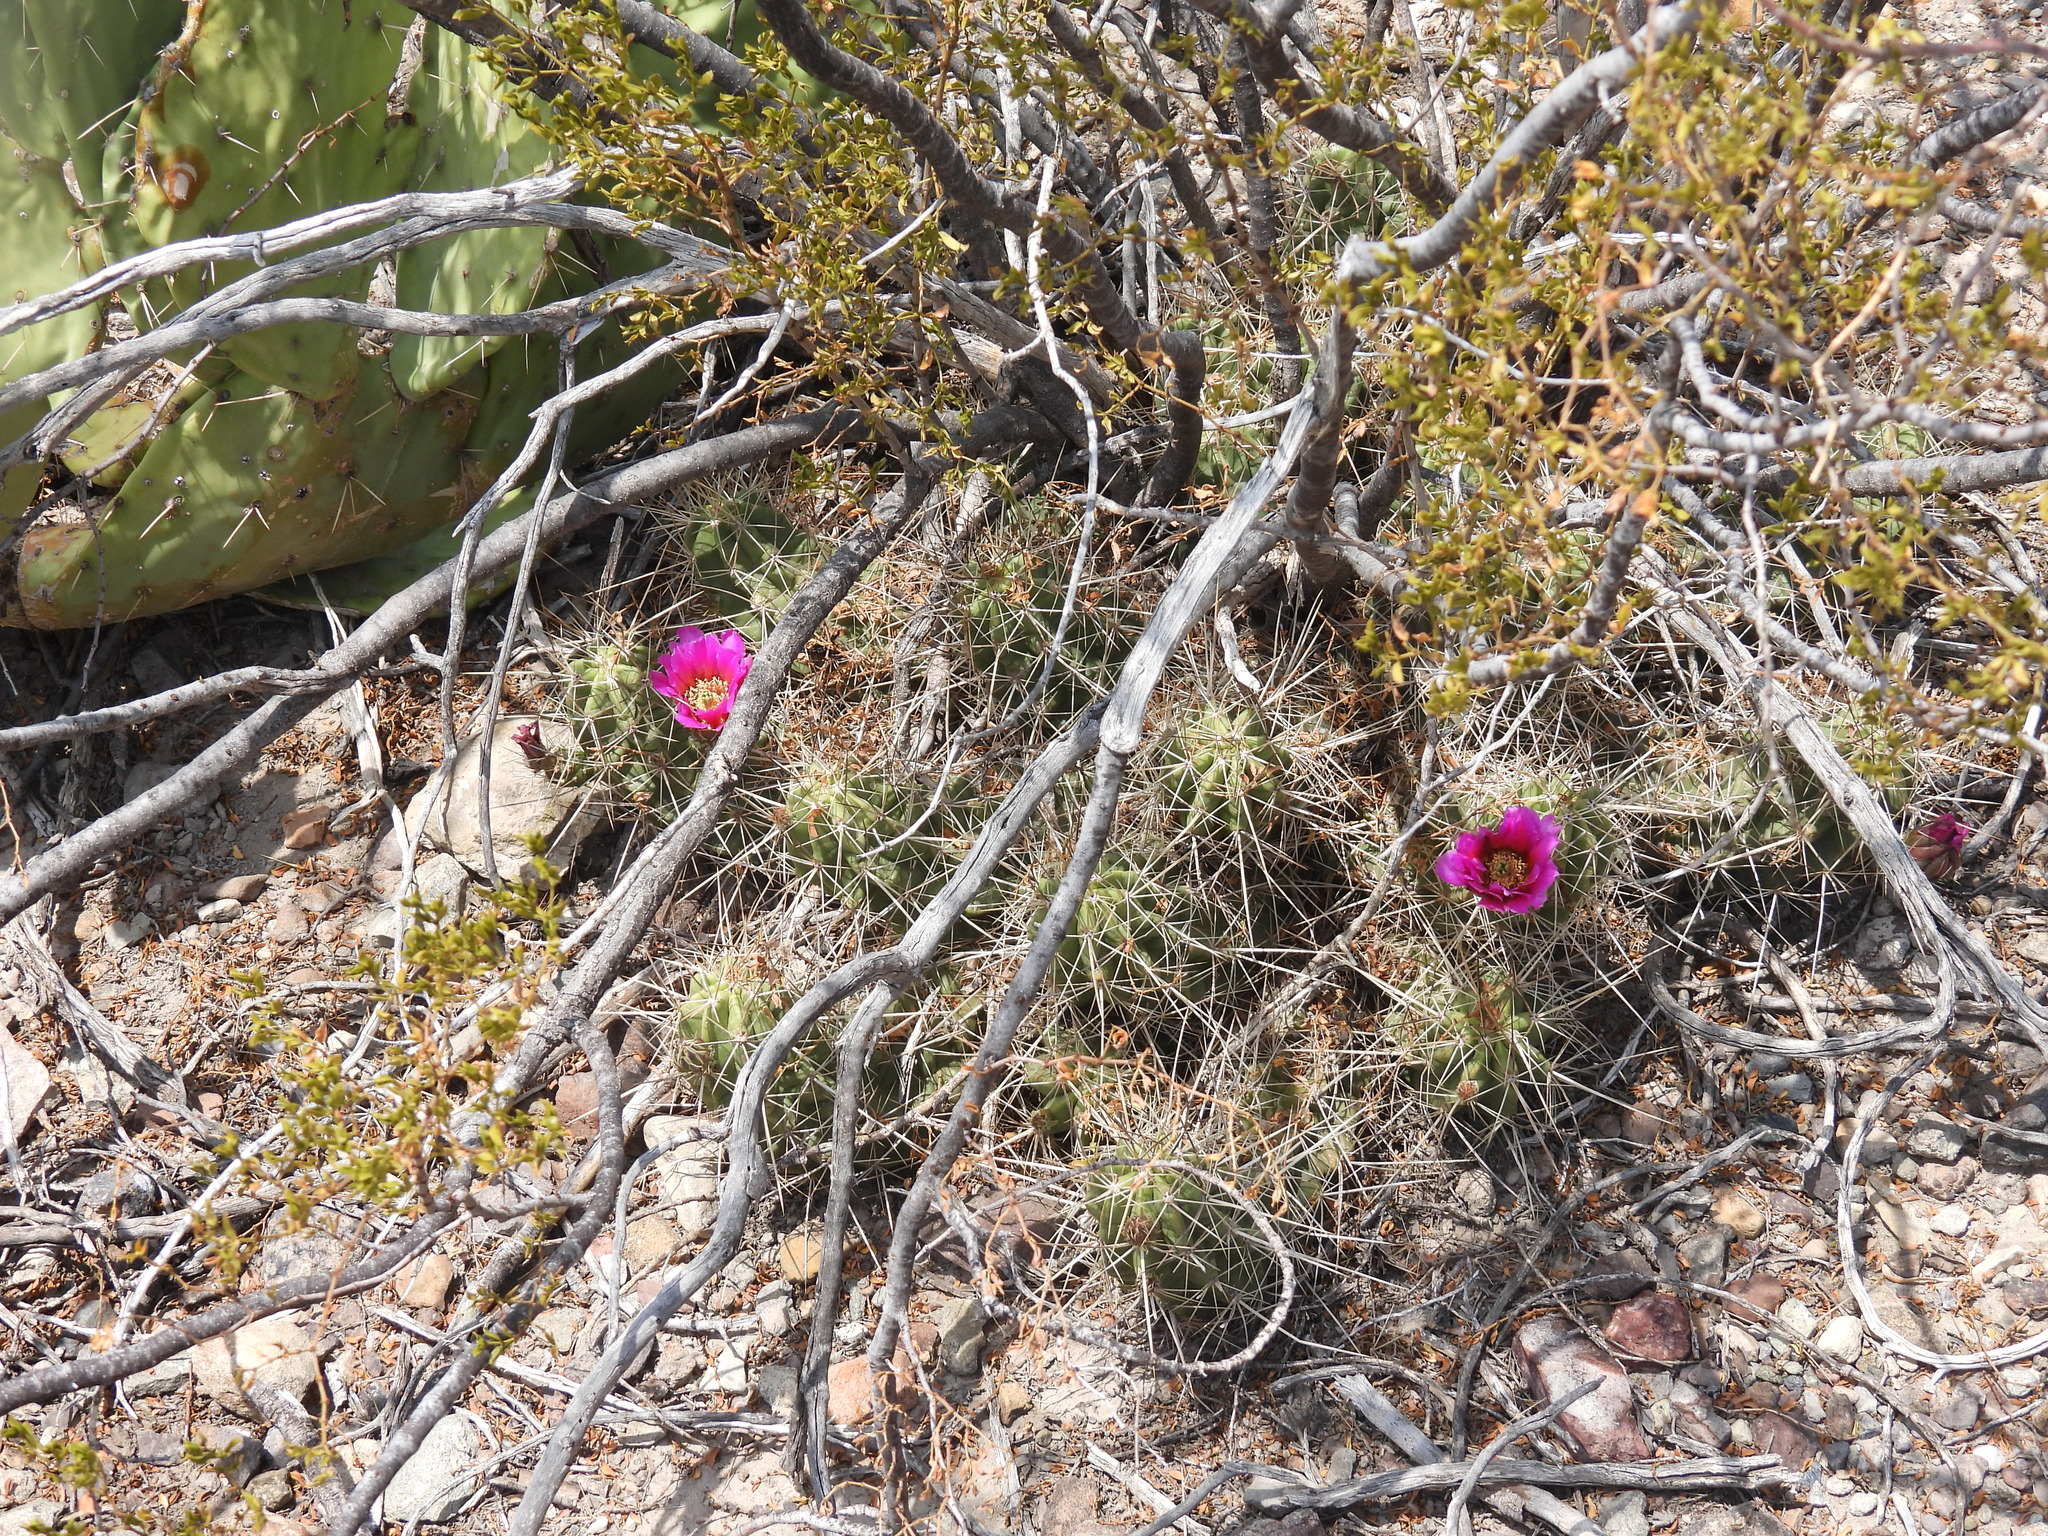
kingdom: Plantae
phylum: Tracheophyta
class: Magnoliopsida
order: Caryophyllales
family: Cactaceae
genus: Echinocereus
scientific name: Echinocereus enneacanthus
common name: Pitaya
